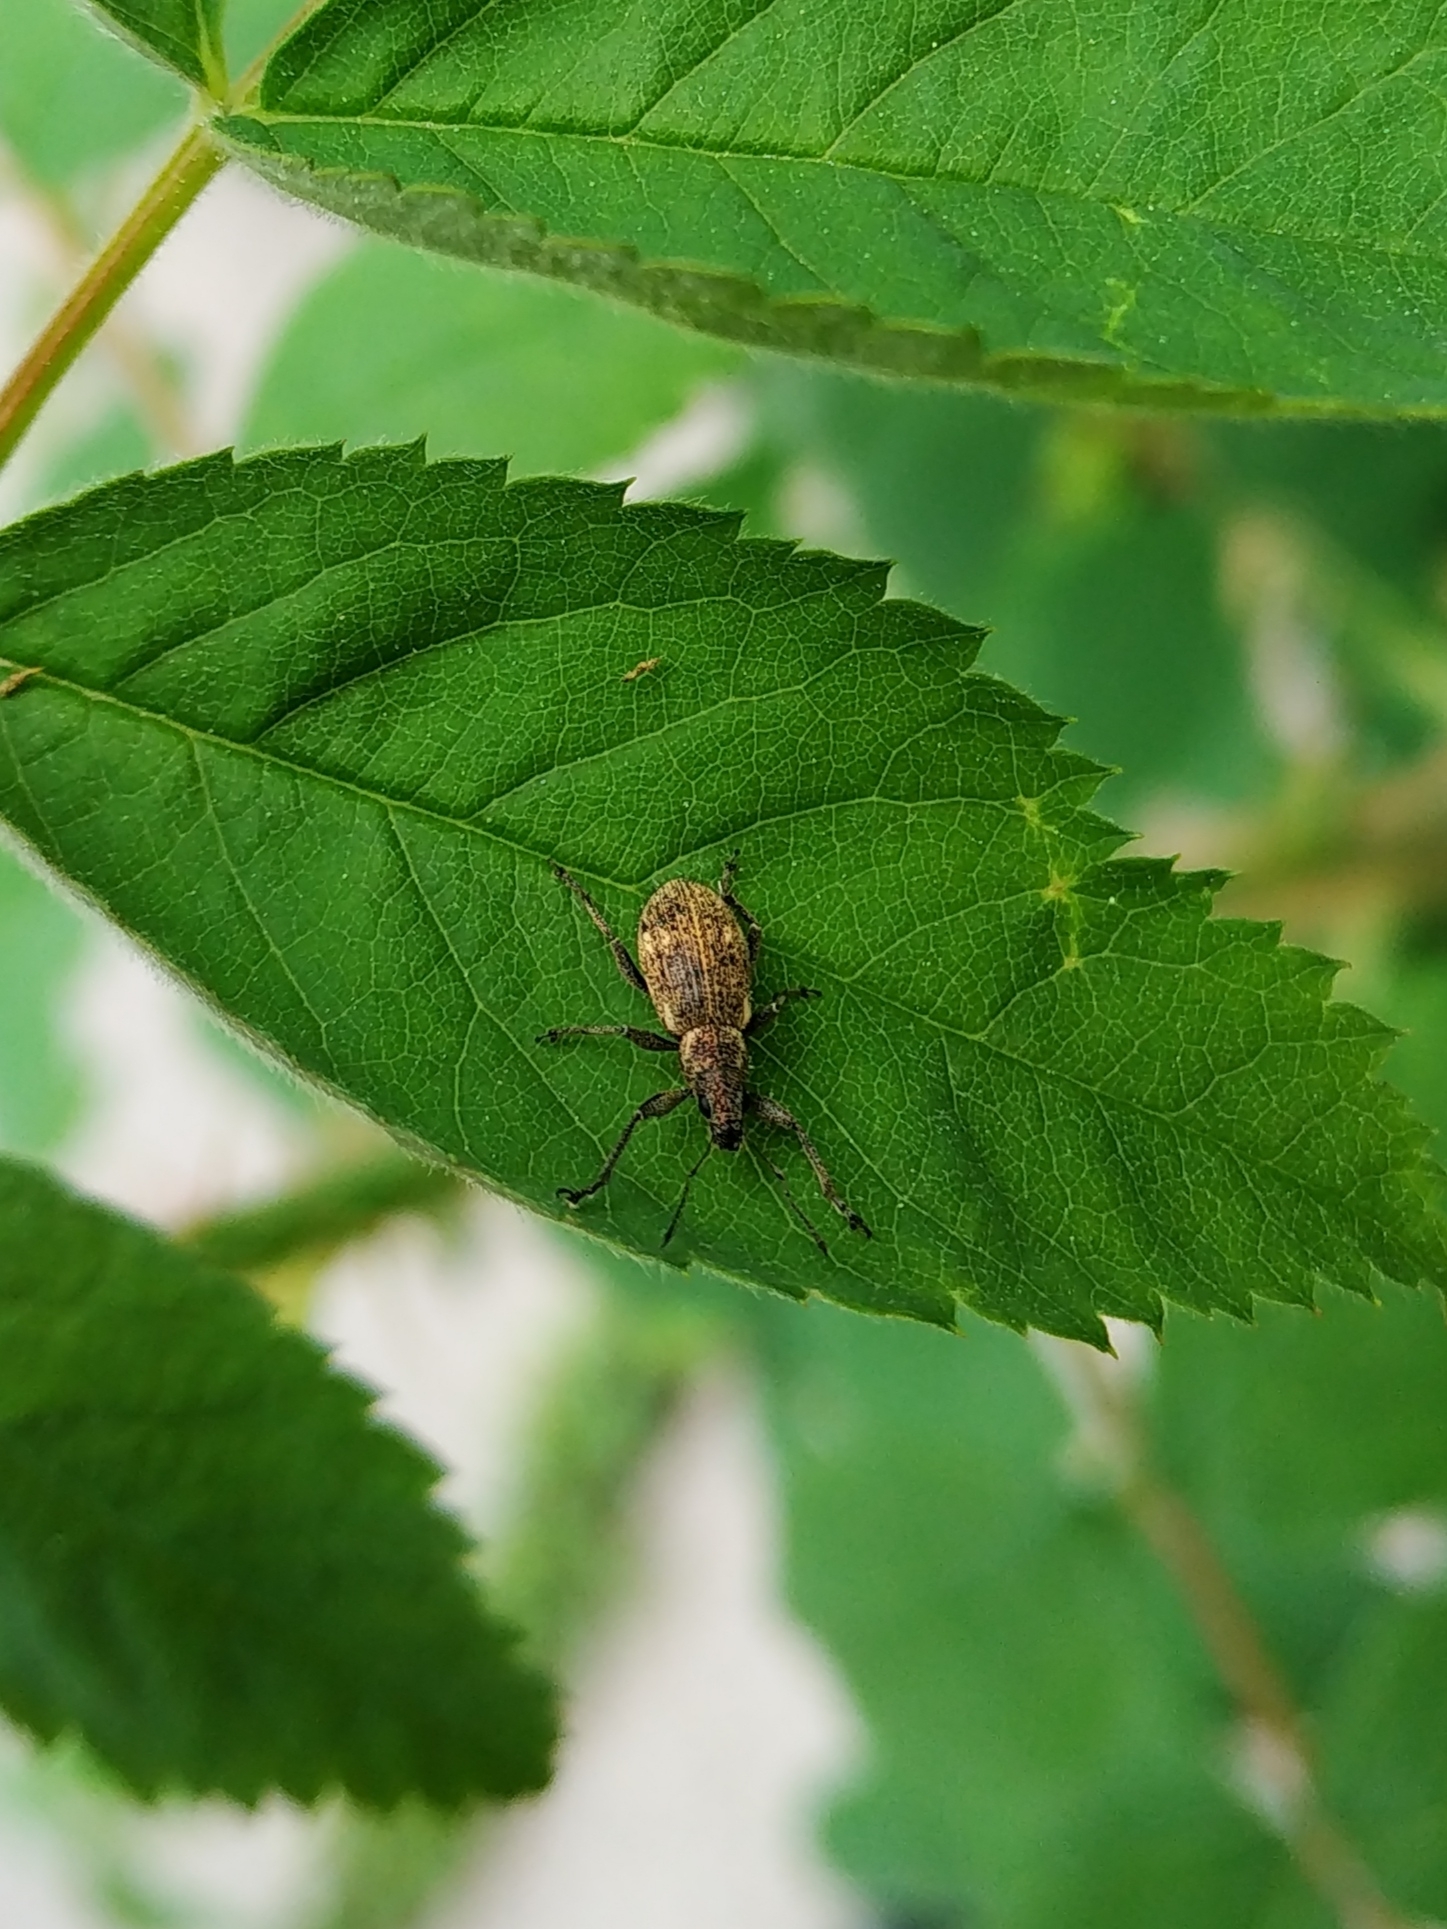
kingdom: Animalia
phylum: Arthropoda
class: Insecta
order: Coleoptera
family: Curculionidae
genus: Polydrusus
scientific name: Polydrusus inustus
